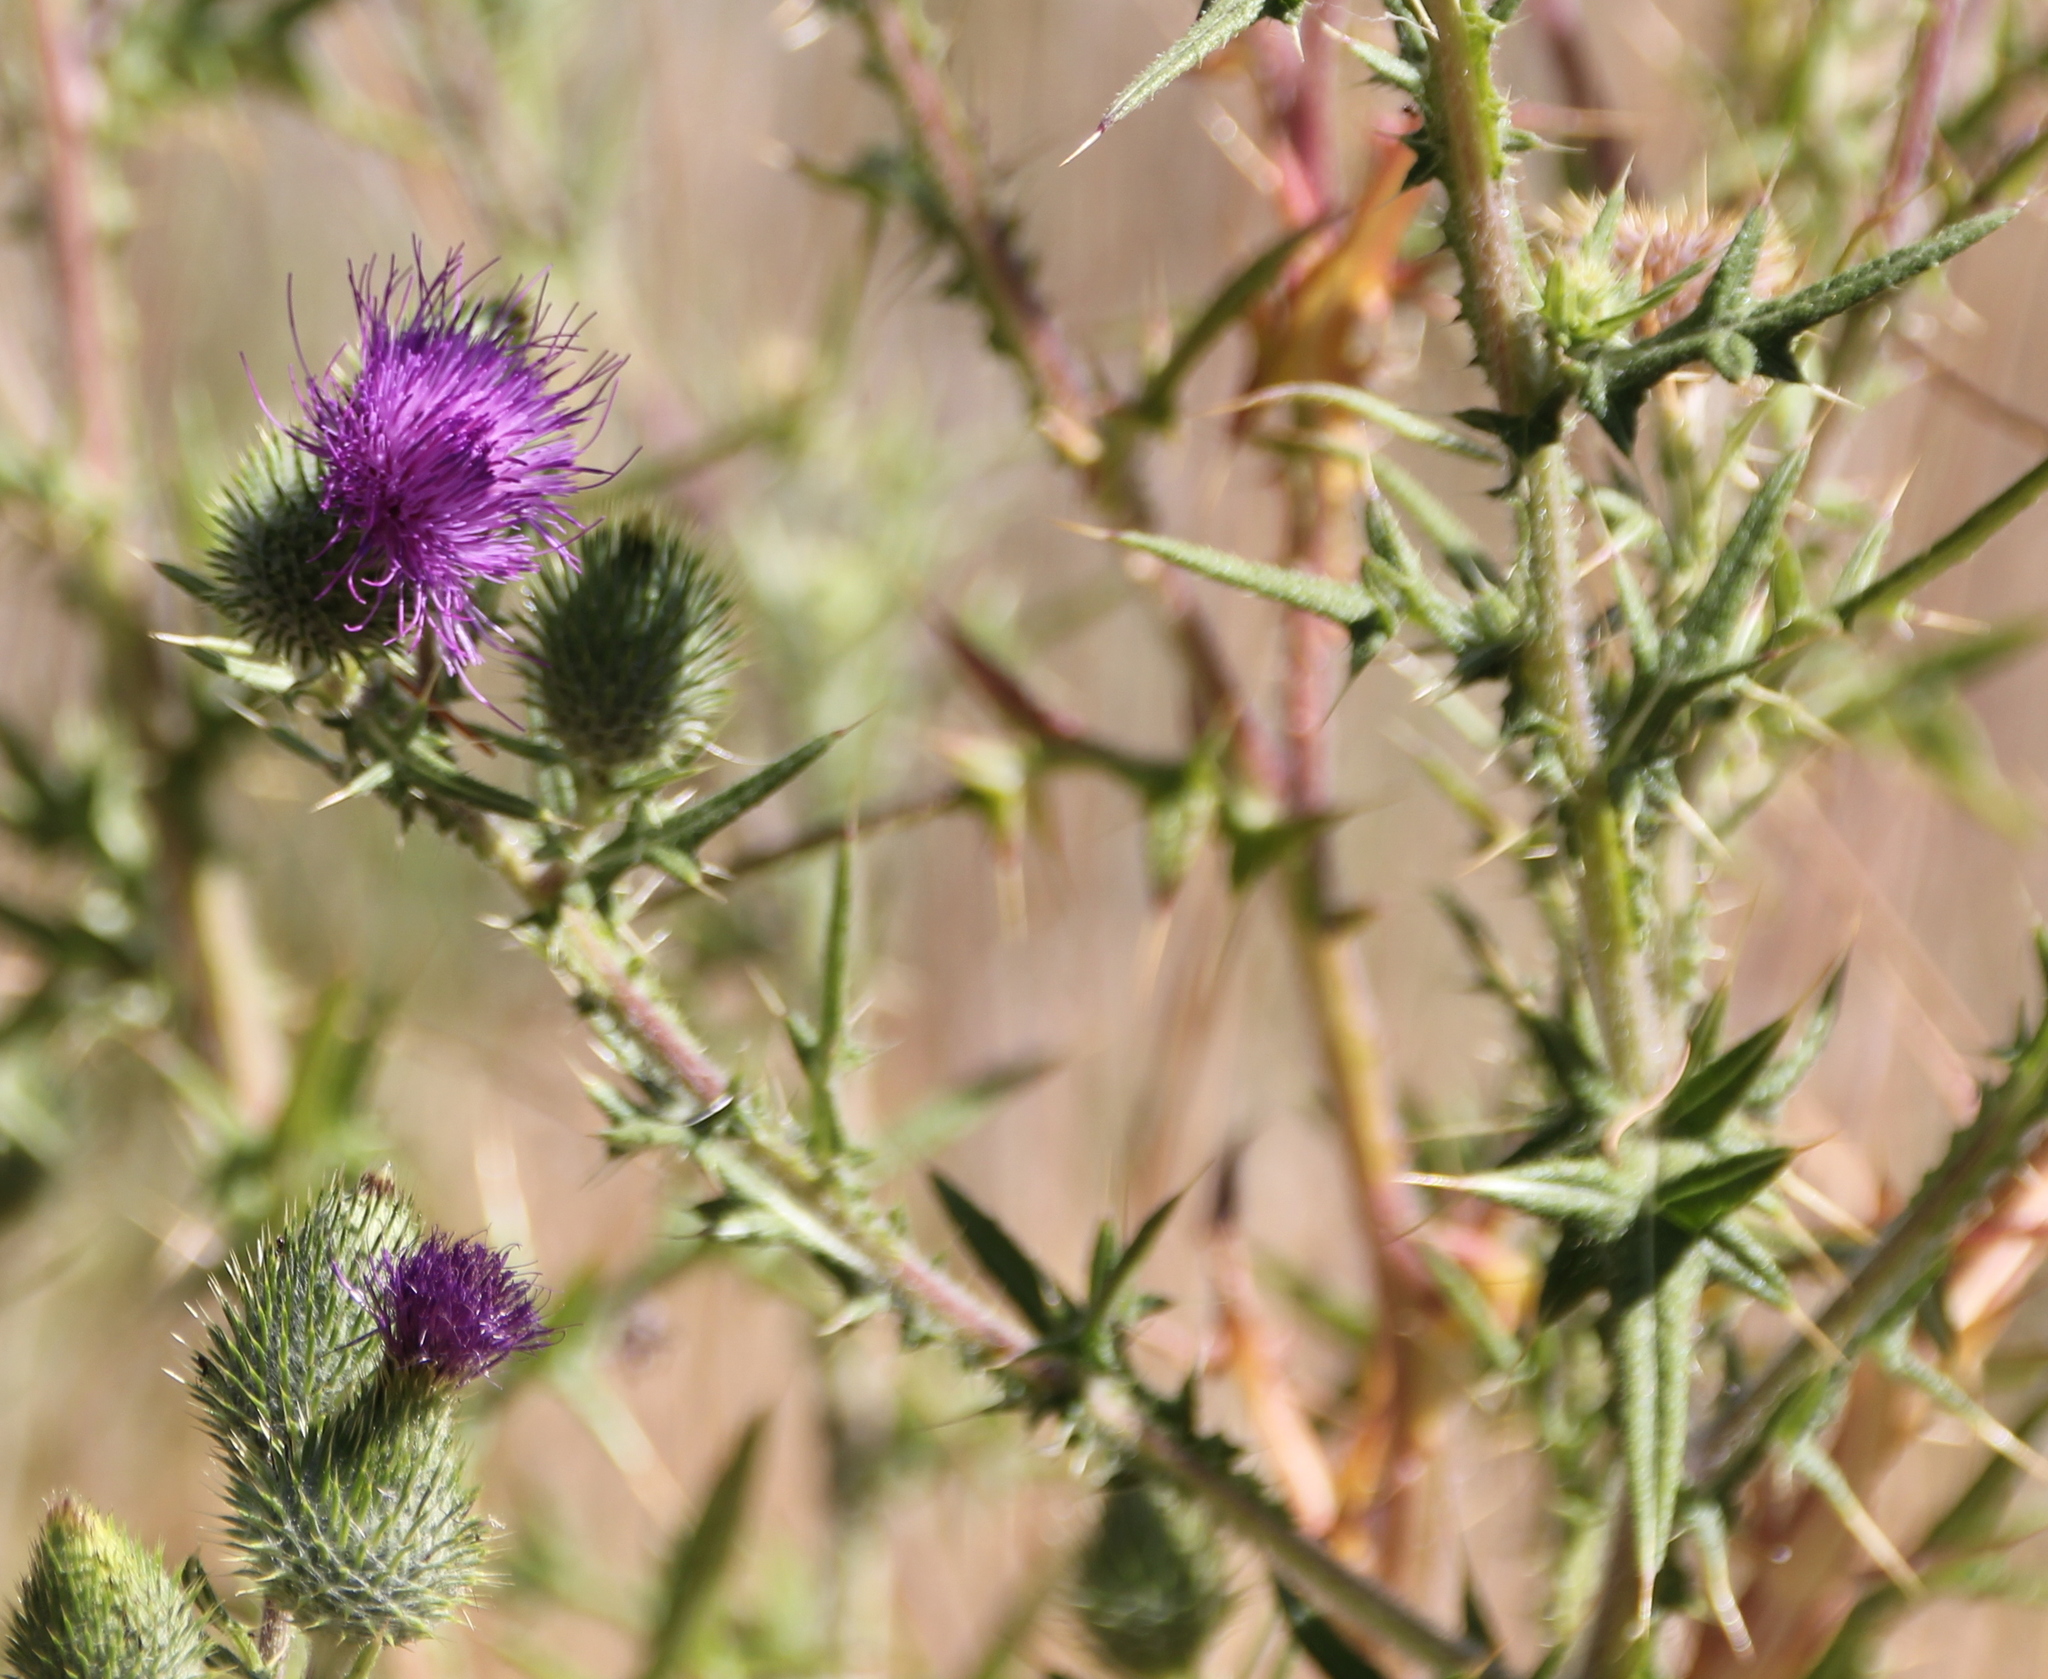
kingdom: Plantae
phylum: Tracheophyta
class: Magnoliopsida
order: Asterales
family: Asteraceae
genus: Cirsium
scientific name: Cirsium vulgare
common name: Bull thistle
